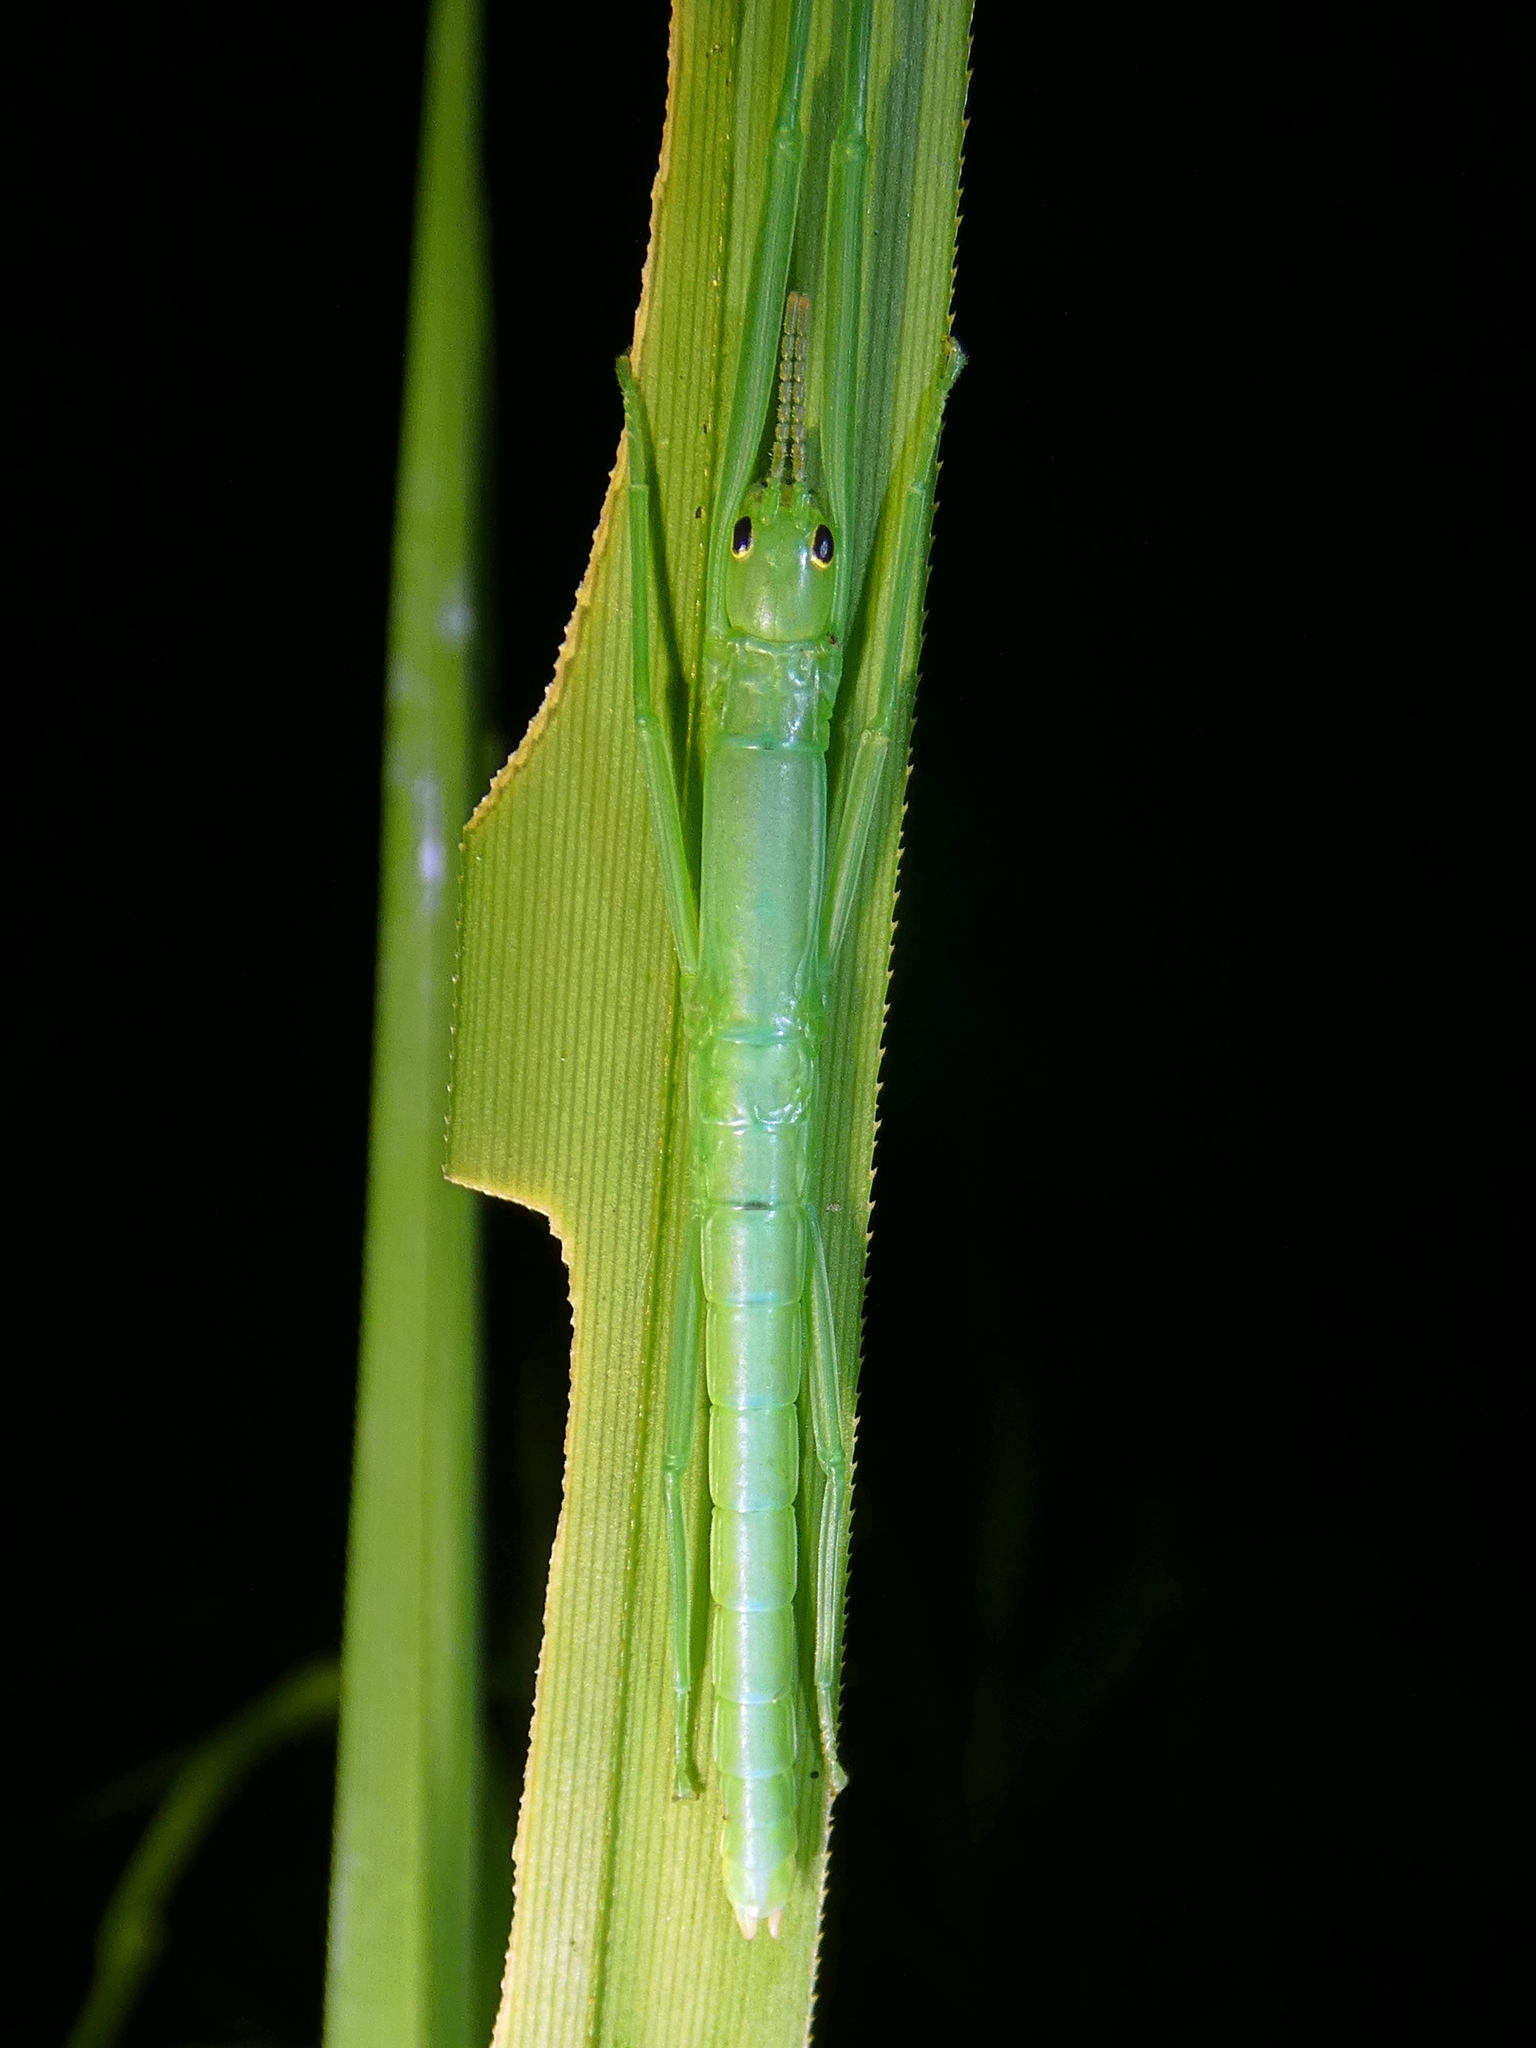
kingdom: Animalia
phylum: Arthropoda
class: Insecta
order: Phasmida
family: Phasmatidae
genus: Megacrania
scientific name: Megacrania batesii
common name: Peppermint stick-insect
